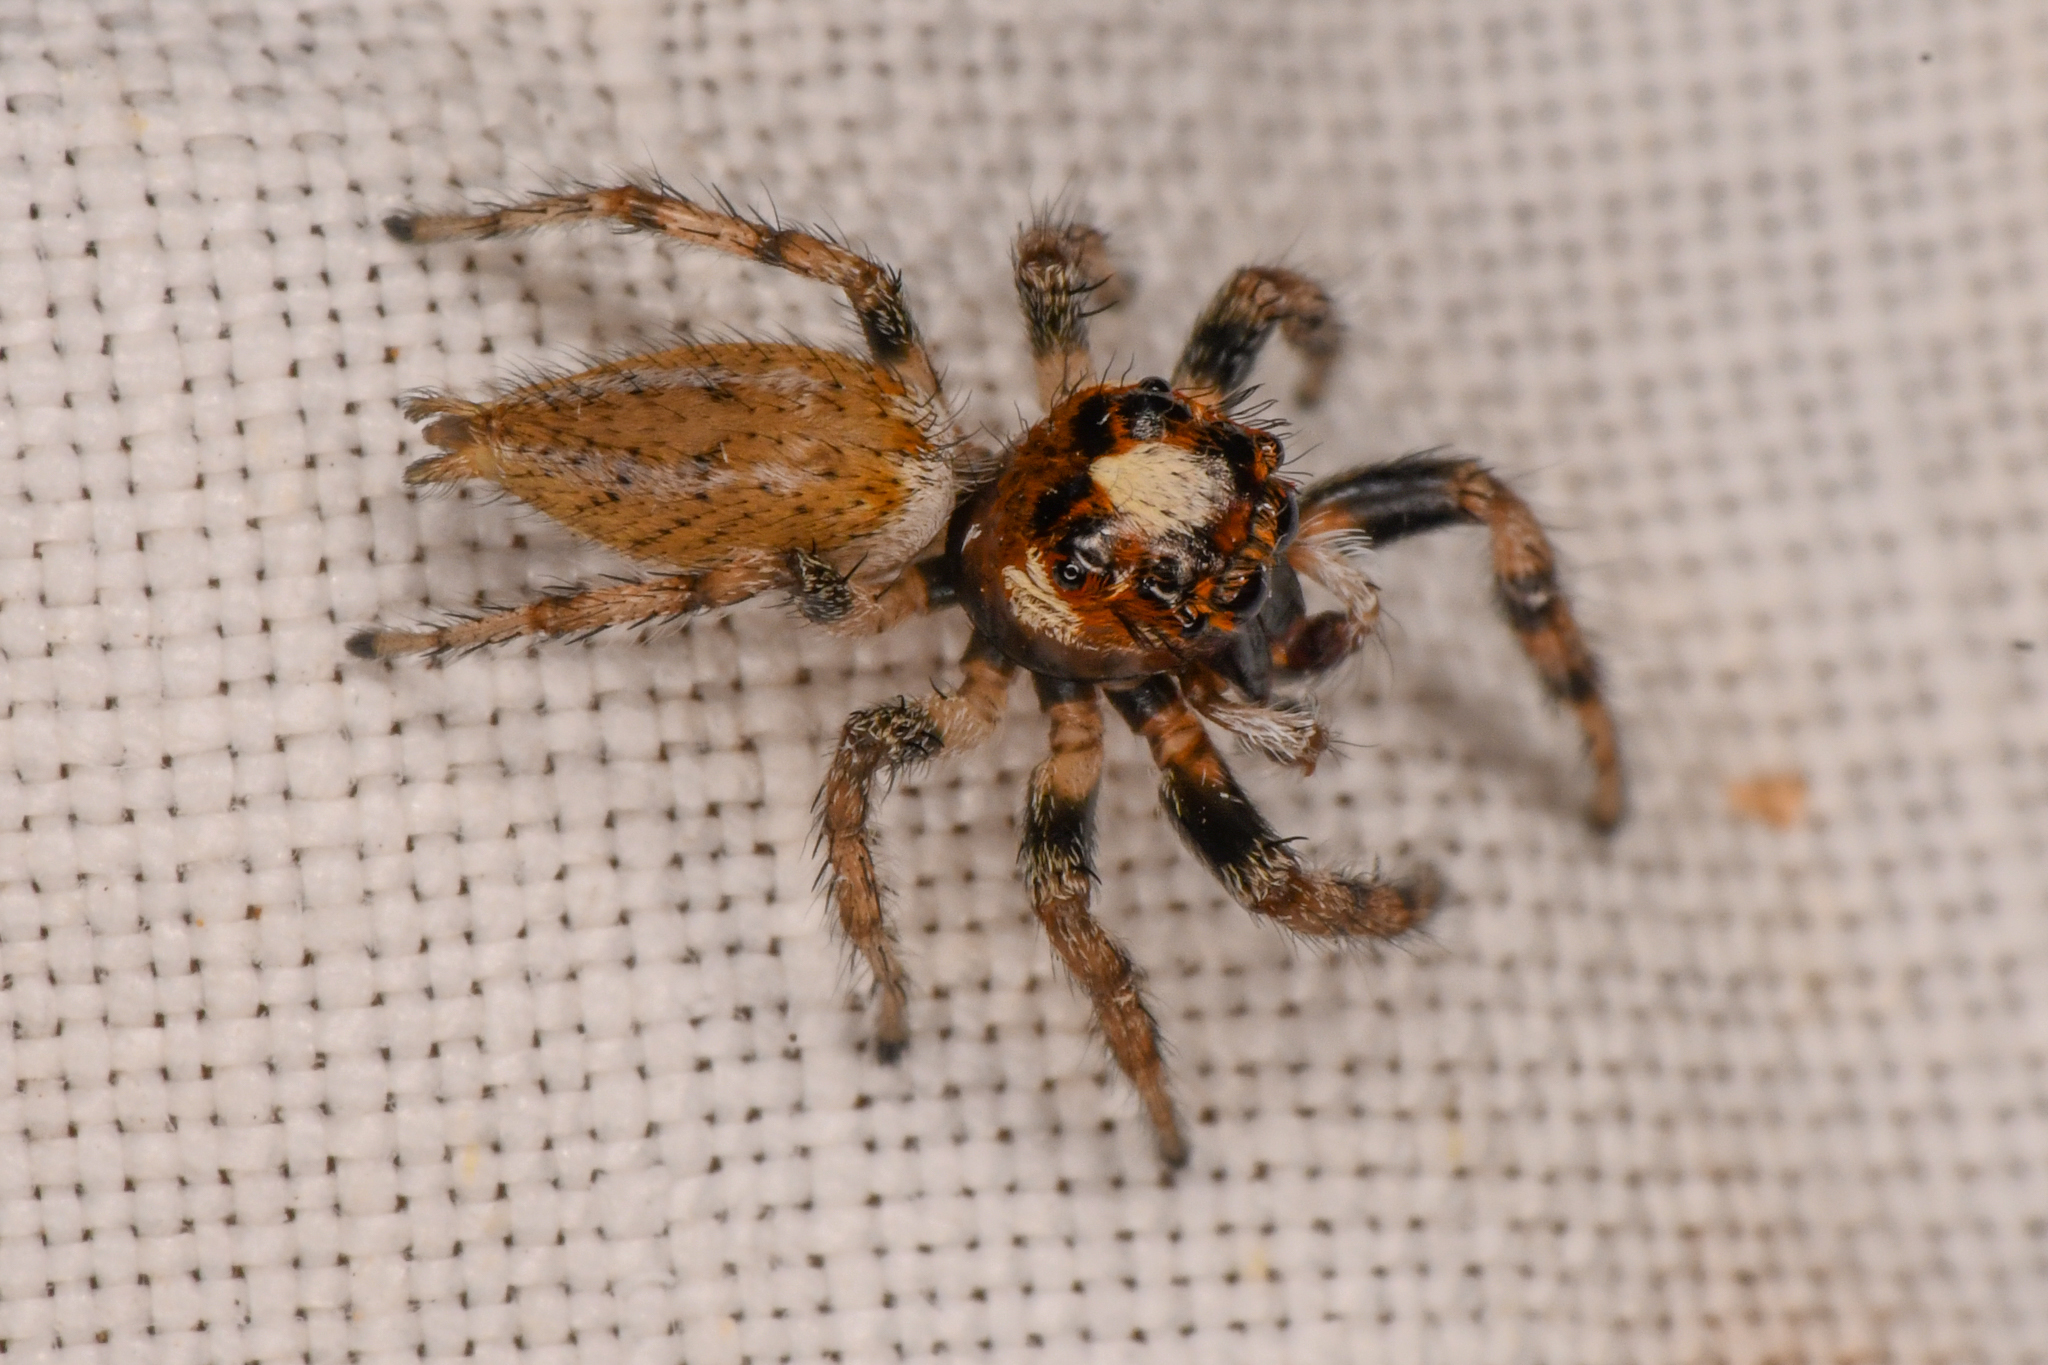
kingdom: Animalia
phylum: Arthropoda
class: Arachnida
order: Araneae
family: Salticidae
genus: Colonus
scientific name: Colonus hesperus
